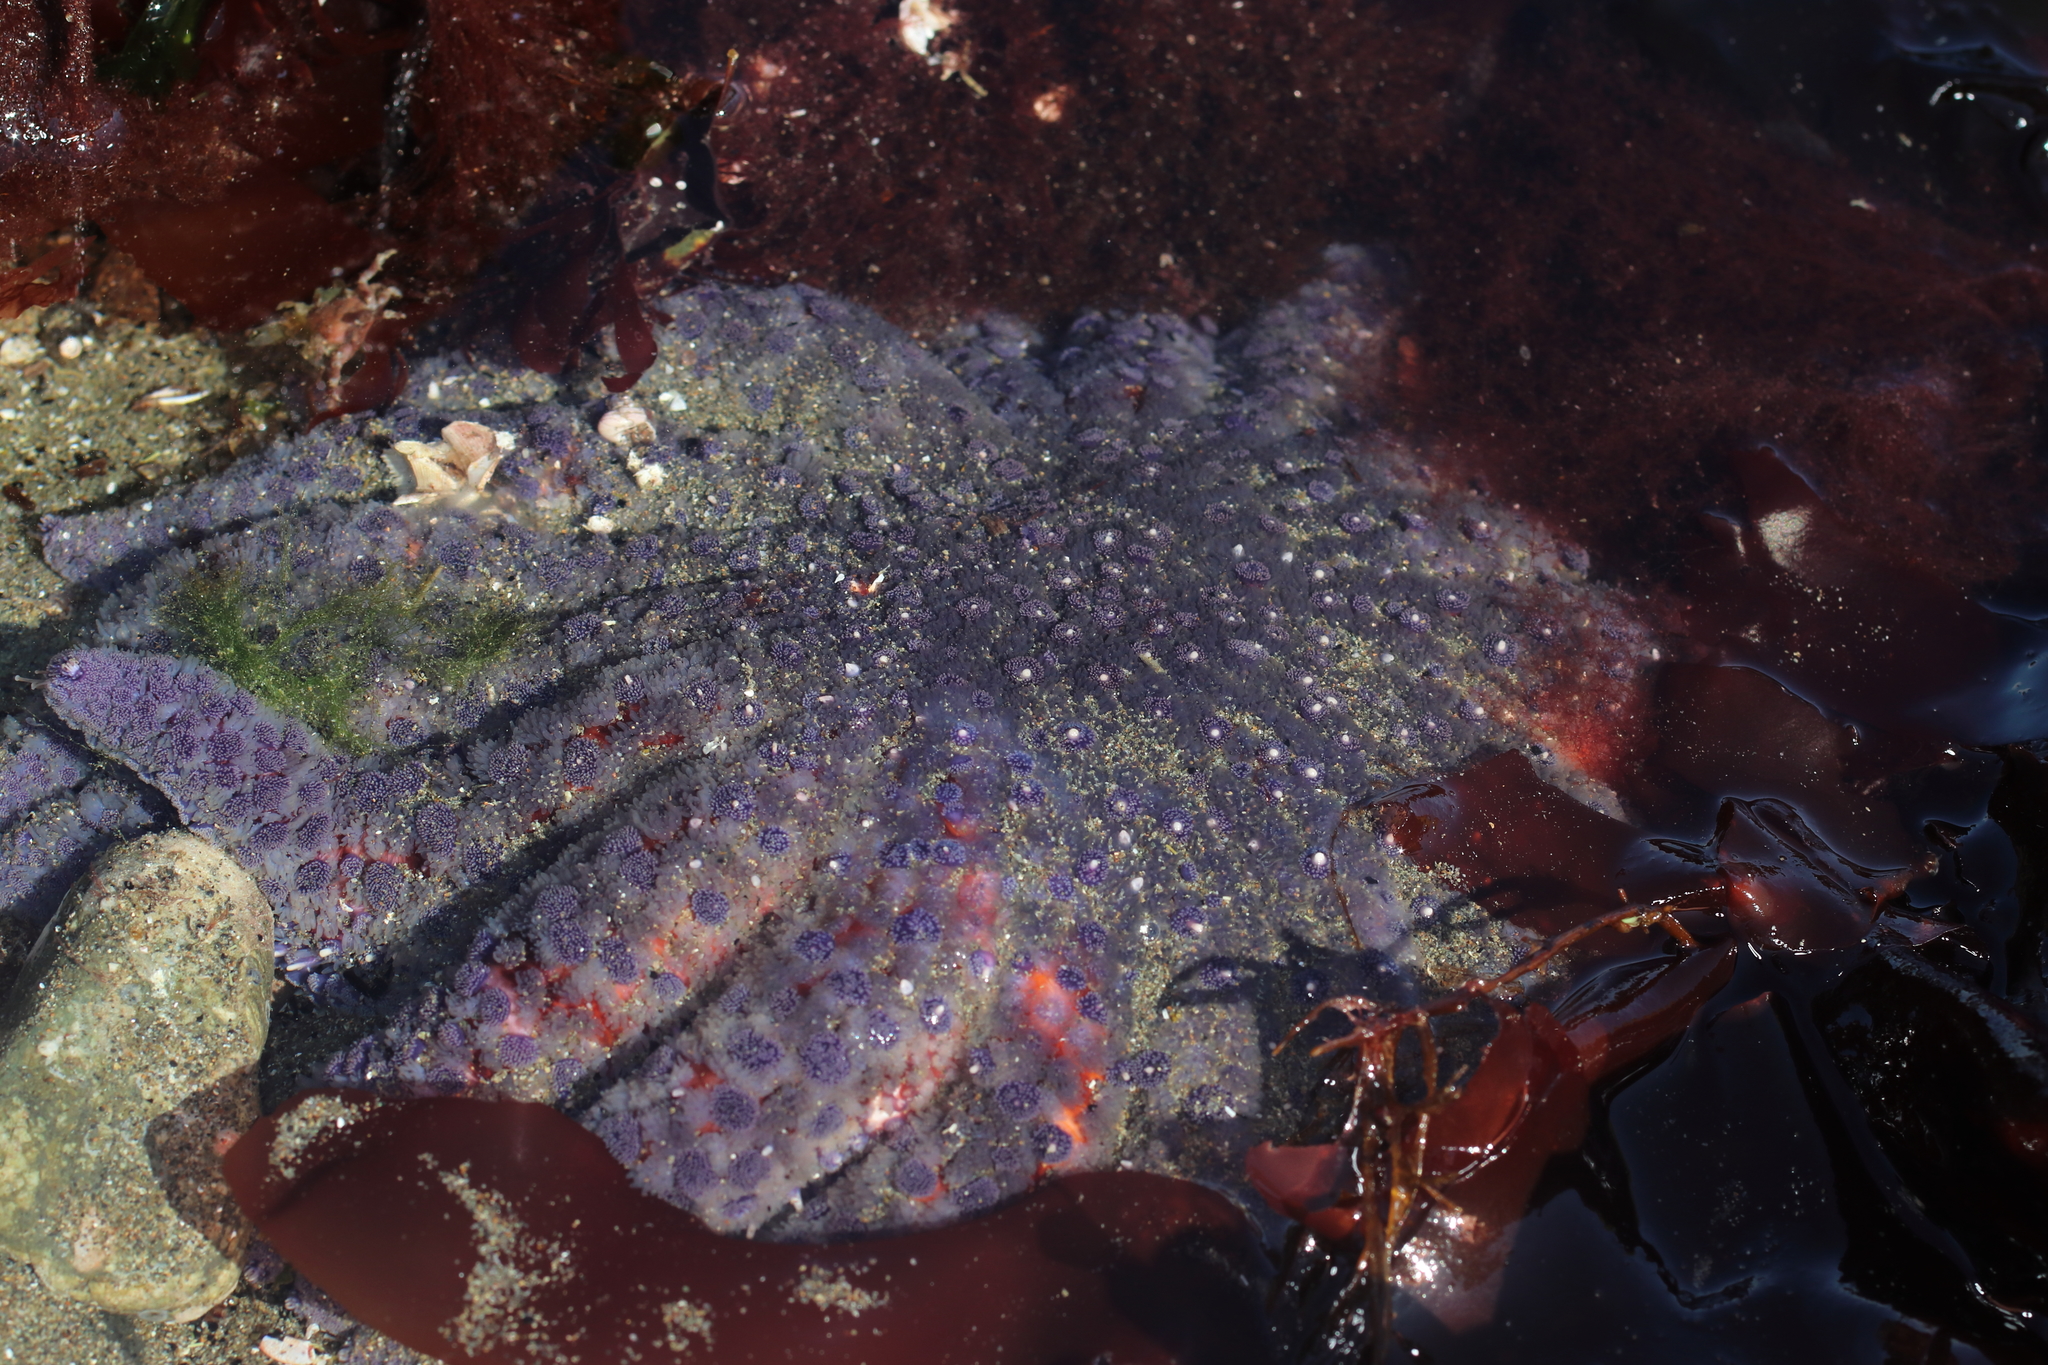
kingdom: Animalia
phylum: Echinodermata
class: Asteroidea
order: Forcipulatida
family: Asteriidae
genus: Pycnopodia
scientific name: Pycnopodia helianthoides
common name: Rag mop
